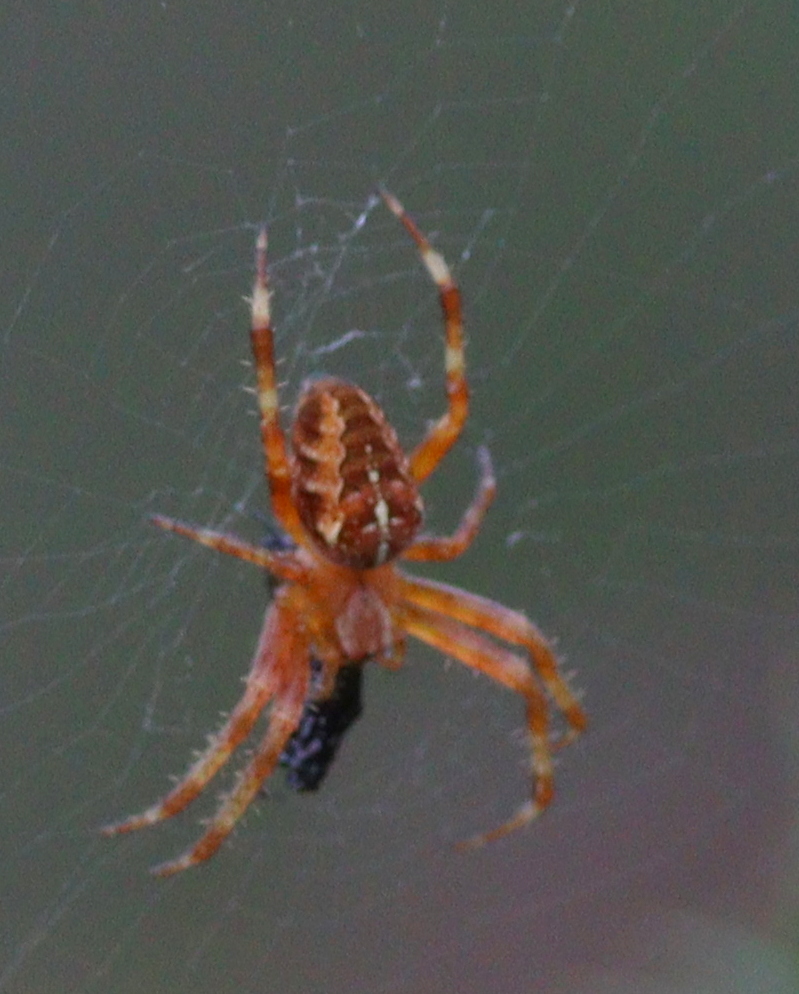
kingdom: Animalia
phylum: Arthropoda
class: Arachnida
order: Araneae
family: Araneidae
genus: Araneus
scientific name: Araneus diadematus
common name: Cross orbweaver
